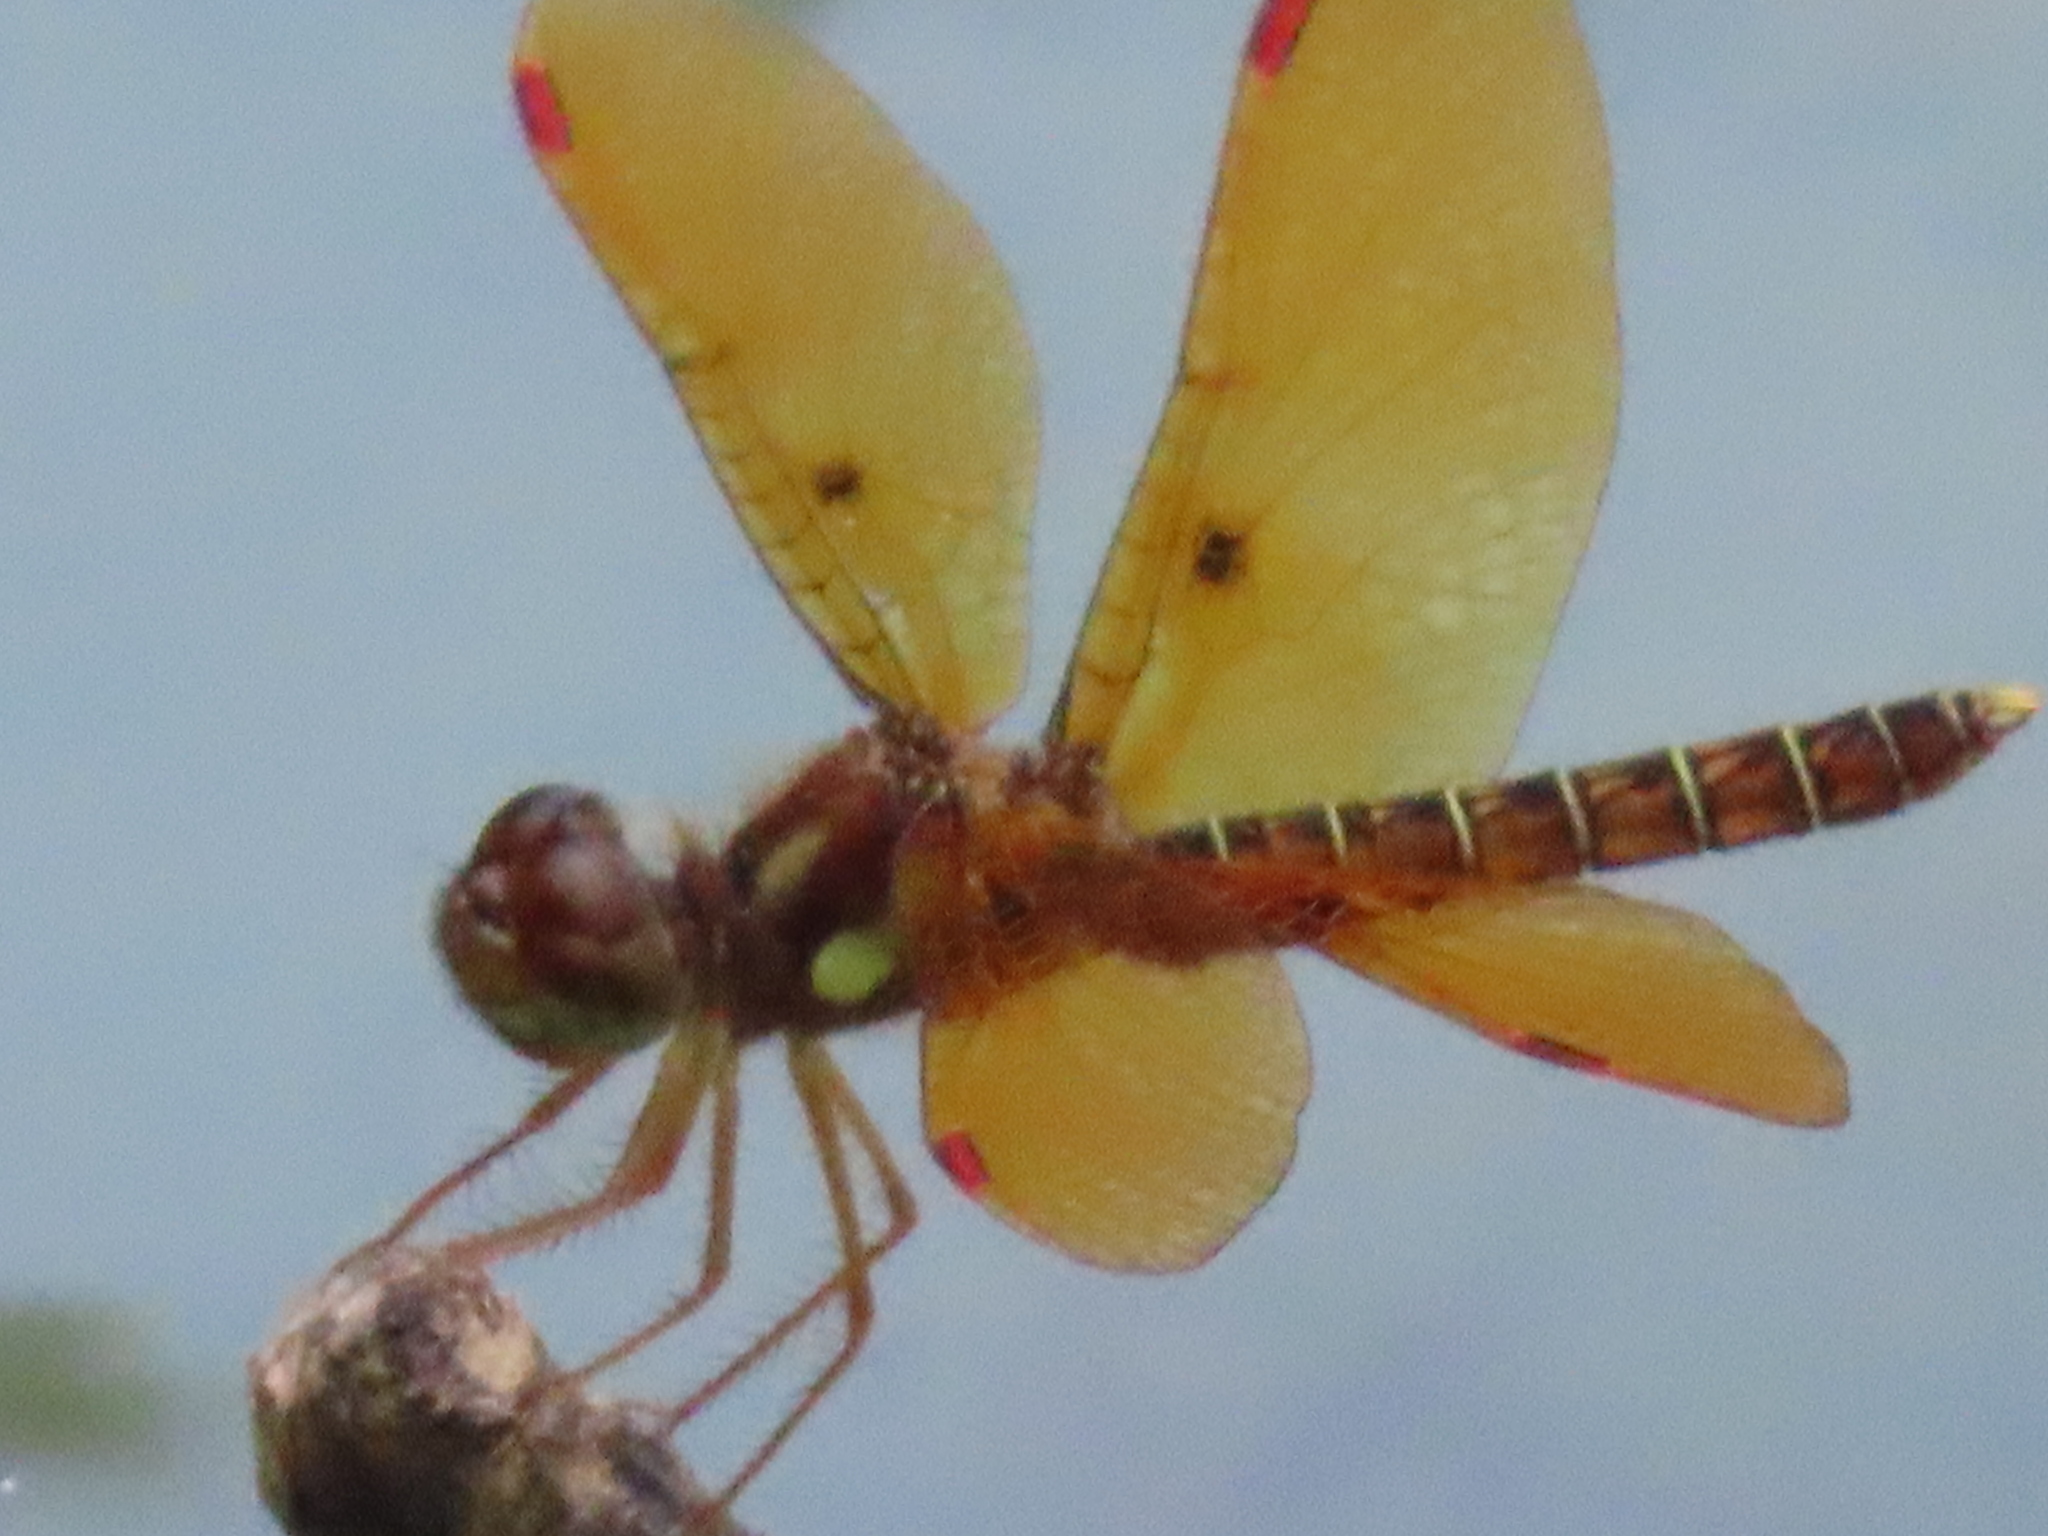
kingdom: Animalia
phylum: Arthropoda
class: Insecta
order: Odonata
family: Libellulidae
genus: Perithemis
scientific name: Perithemis tenera
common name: Eastern amberwing
